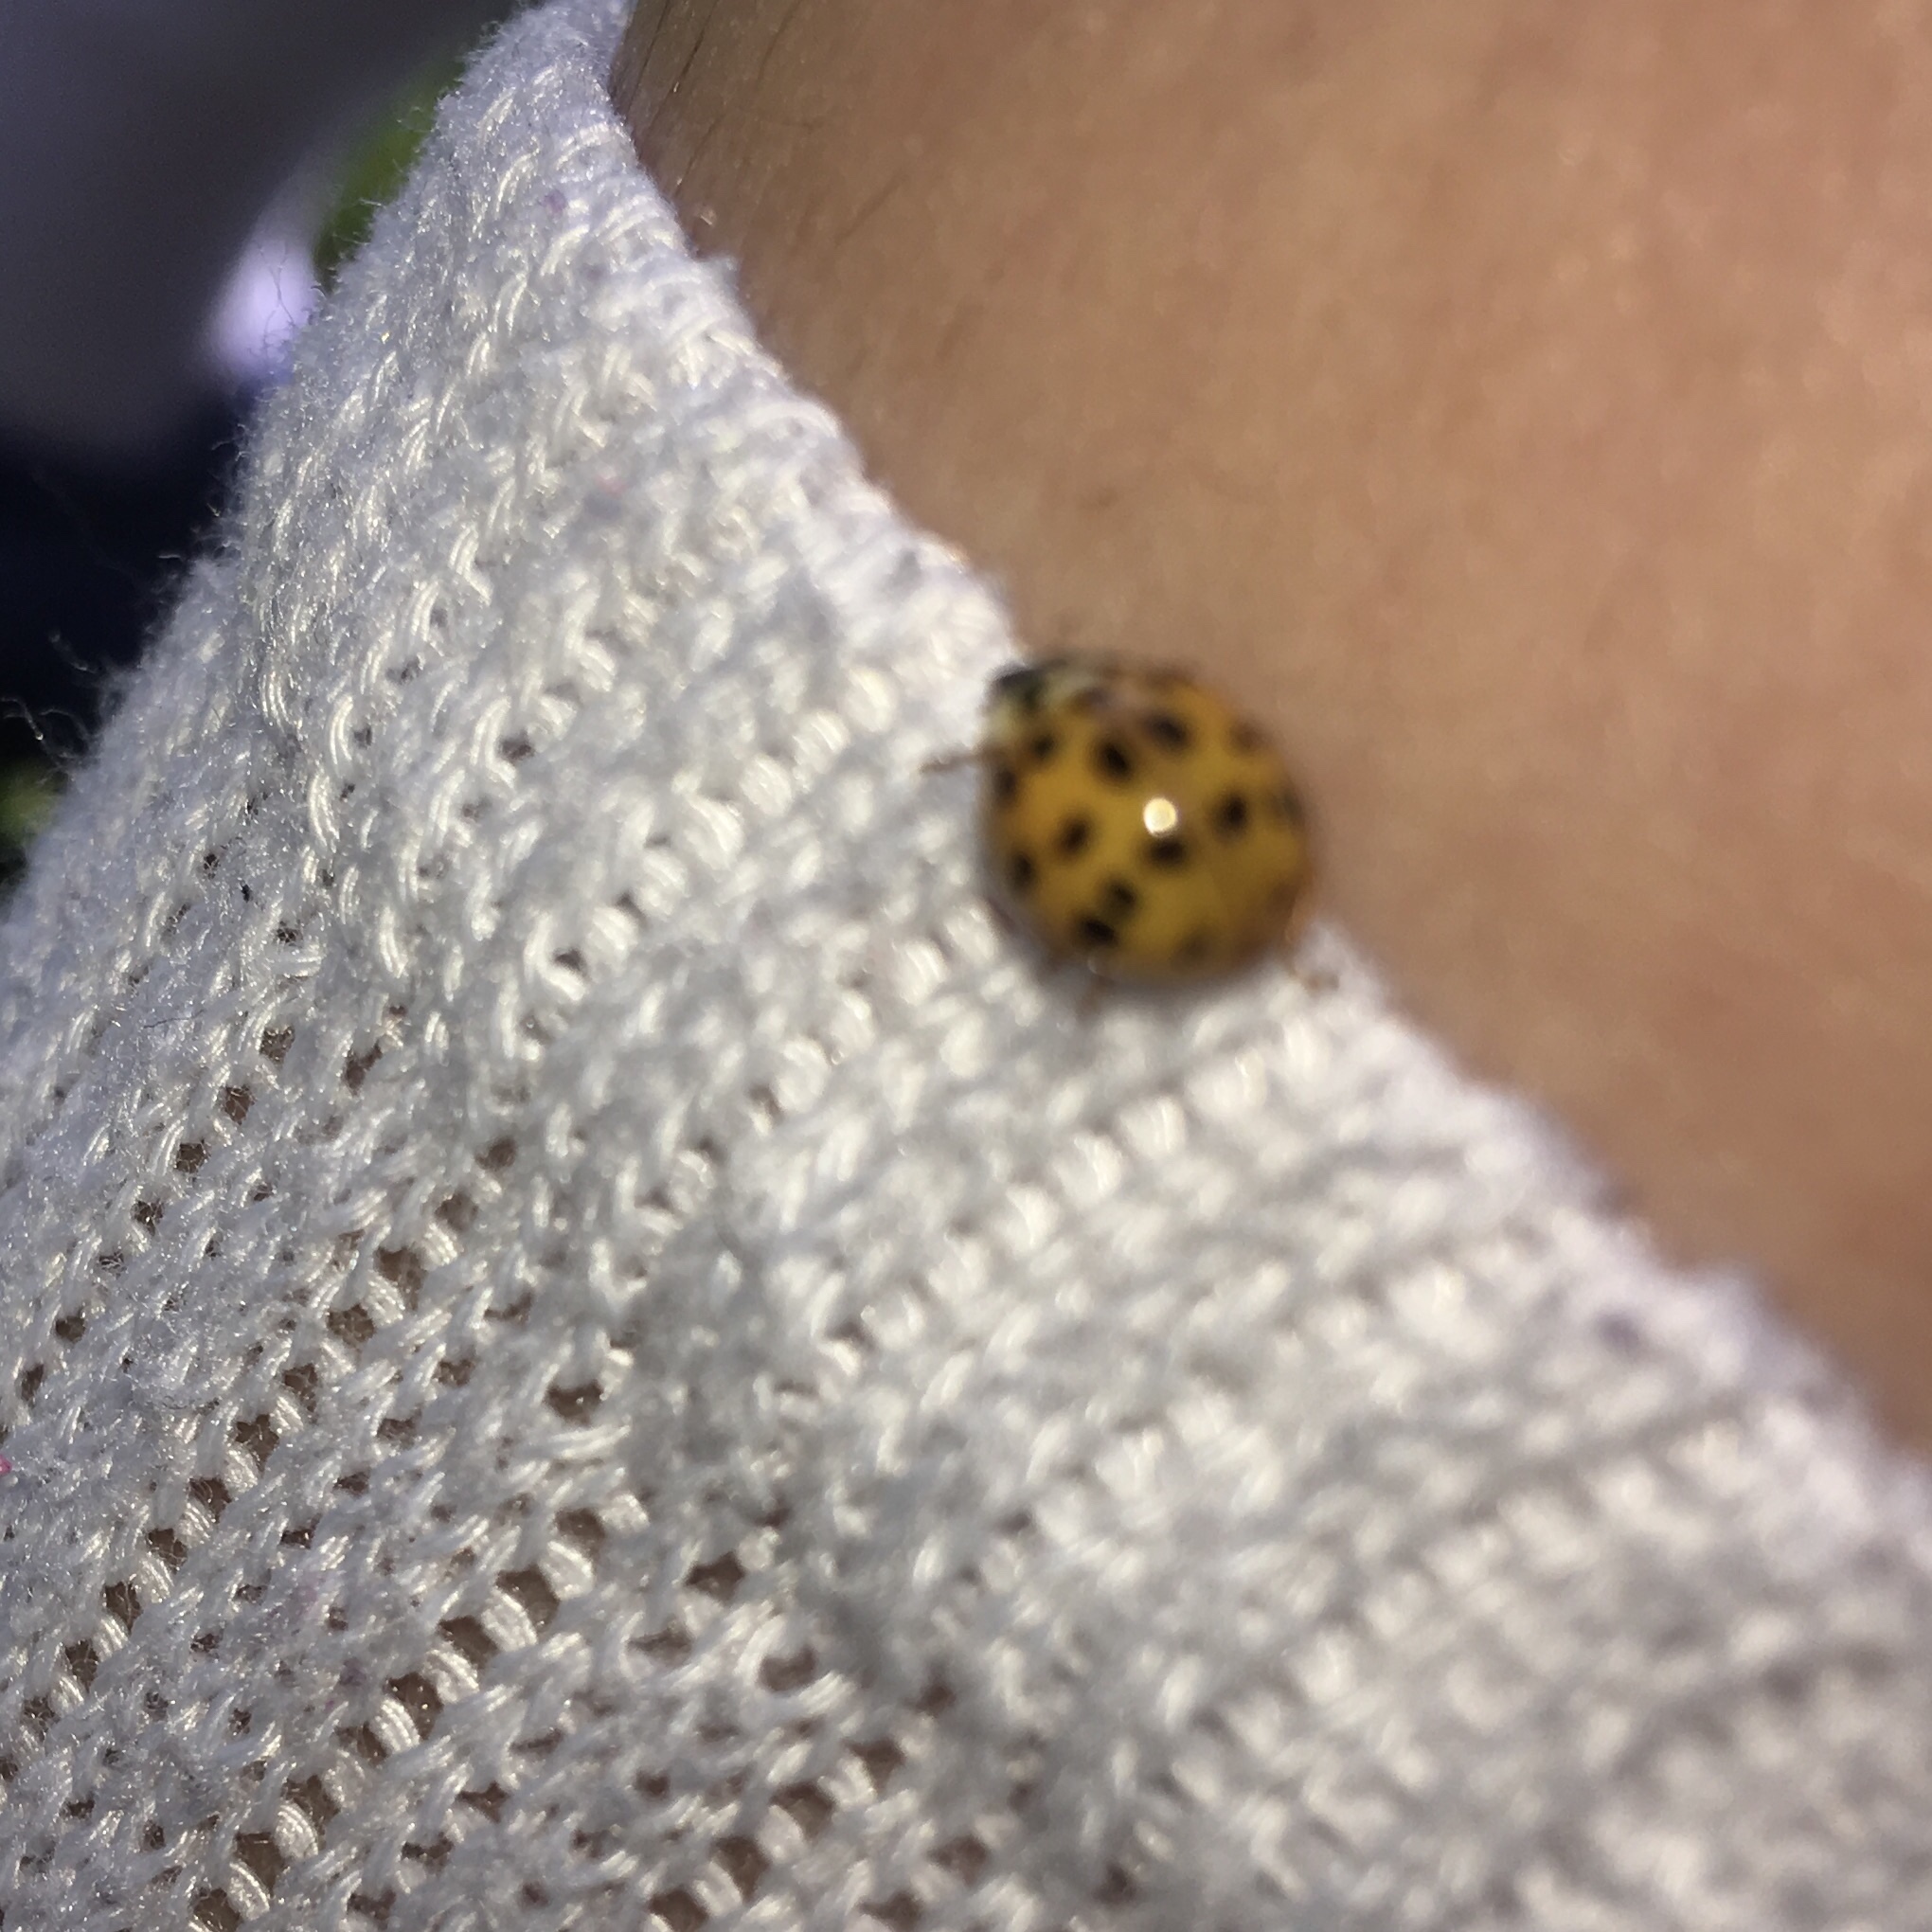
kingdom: Animalia
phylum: Arthropoda
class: Insecta
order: Coleoptera
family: Coccinellidae
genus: Harmonia
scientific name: Harmonia axyridis
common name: Harlequin ladybird
